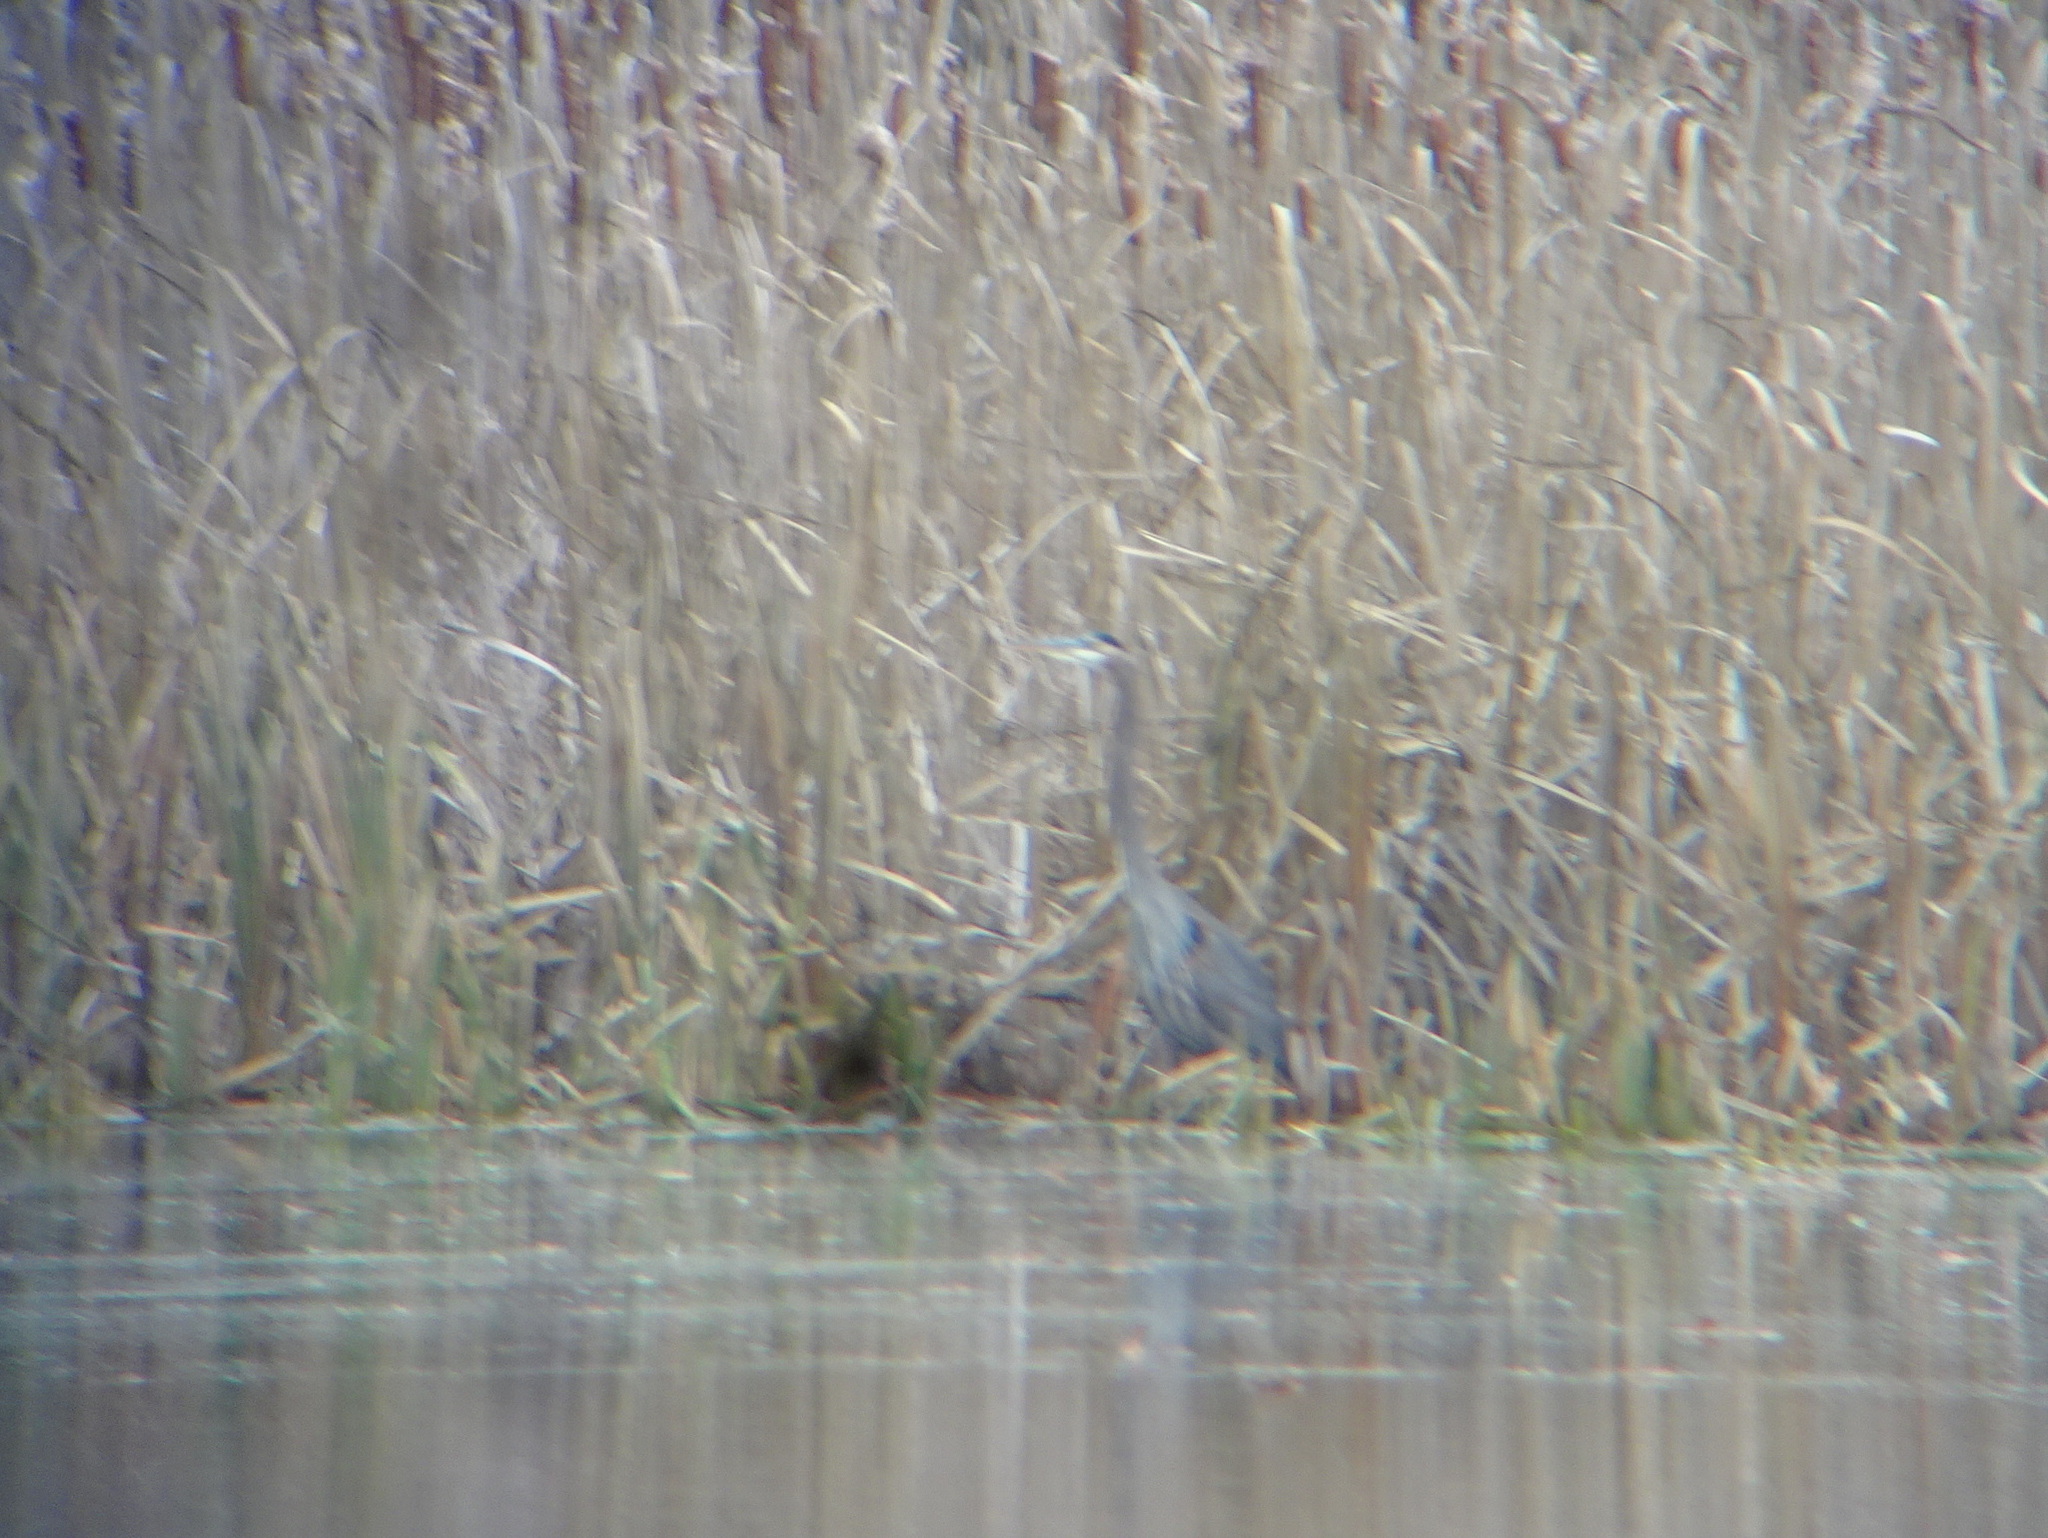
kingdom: Animalia
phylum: Chordata
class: Aves
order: Pelecaniformes
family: Ardeidae
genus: Ardea
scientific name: Ardea herodias
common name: Great blue heron
